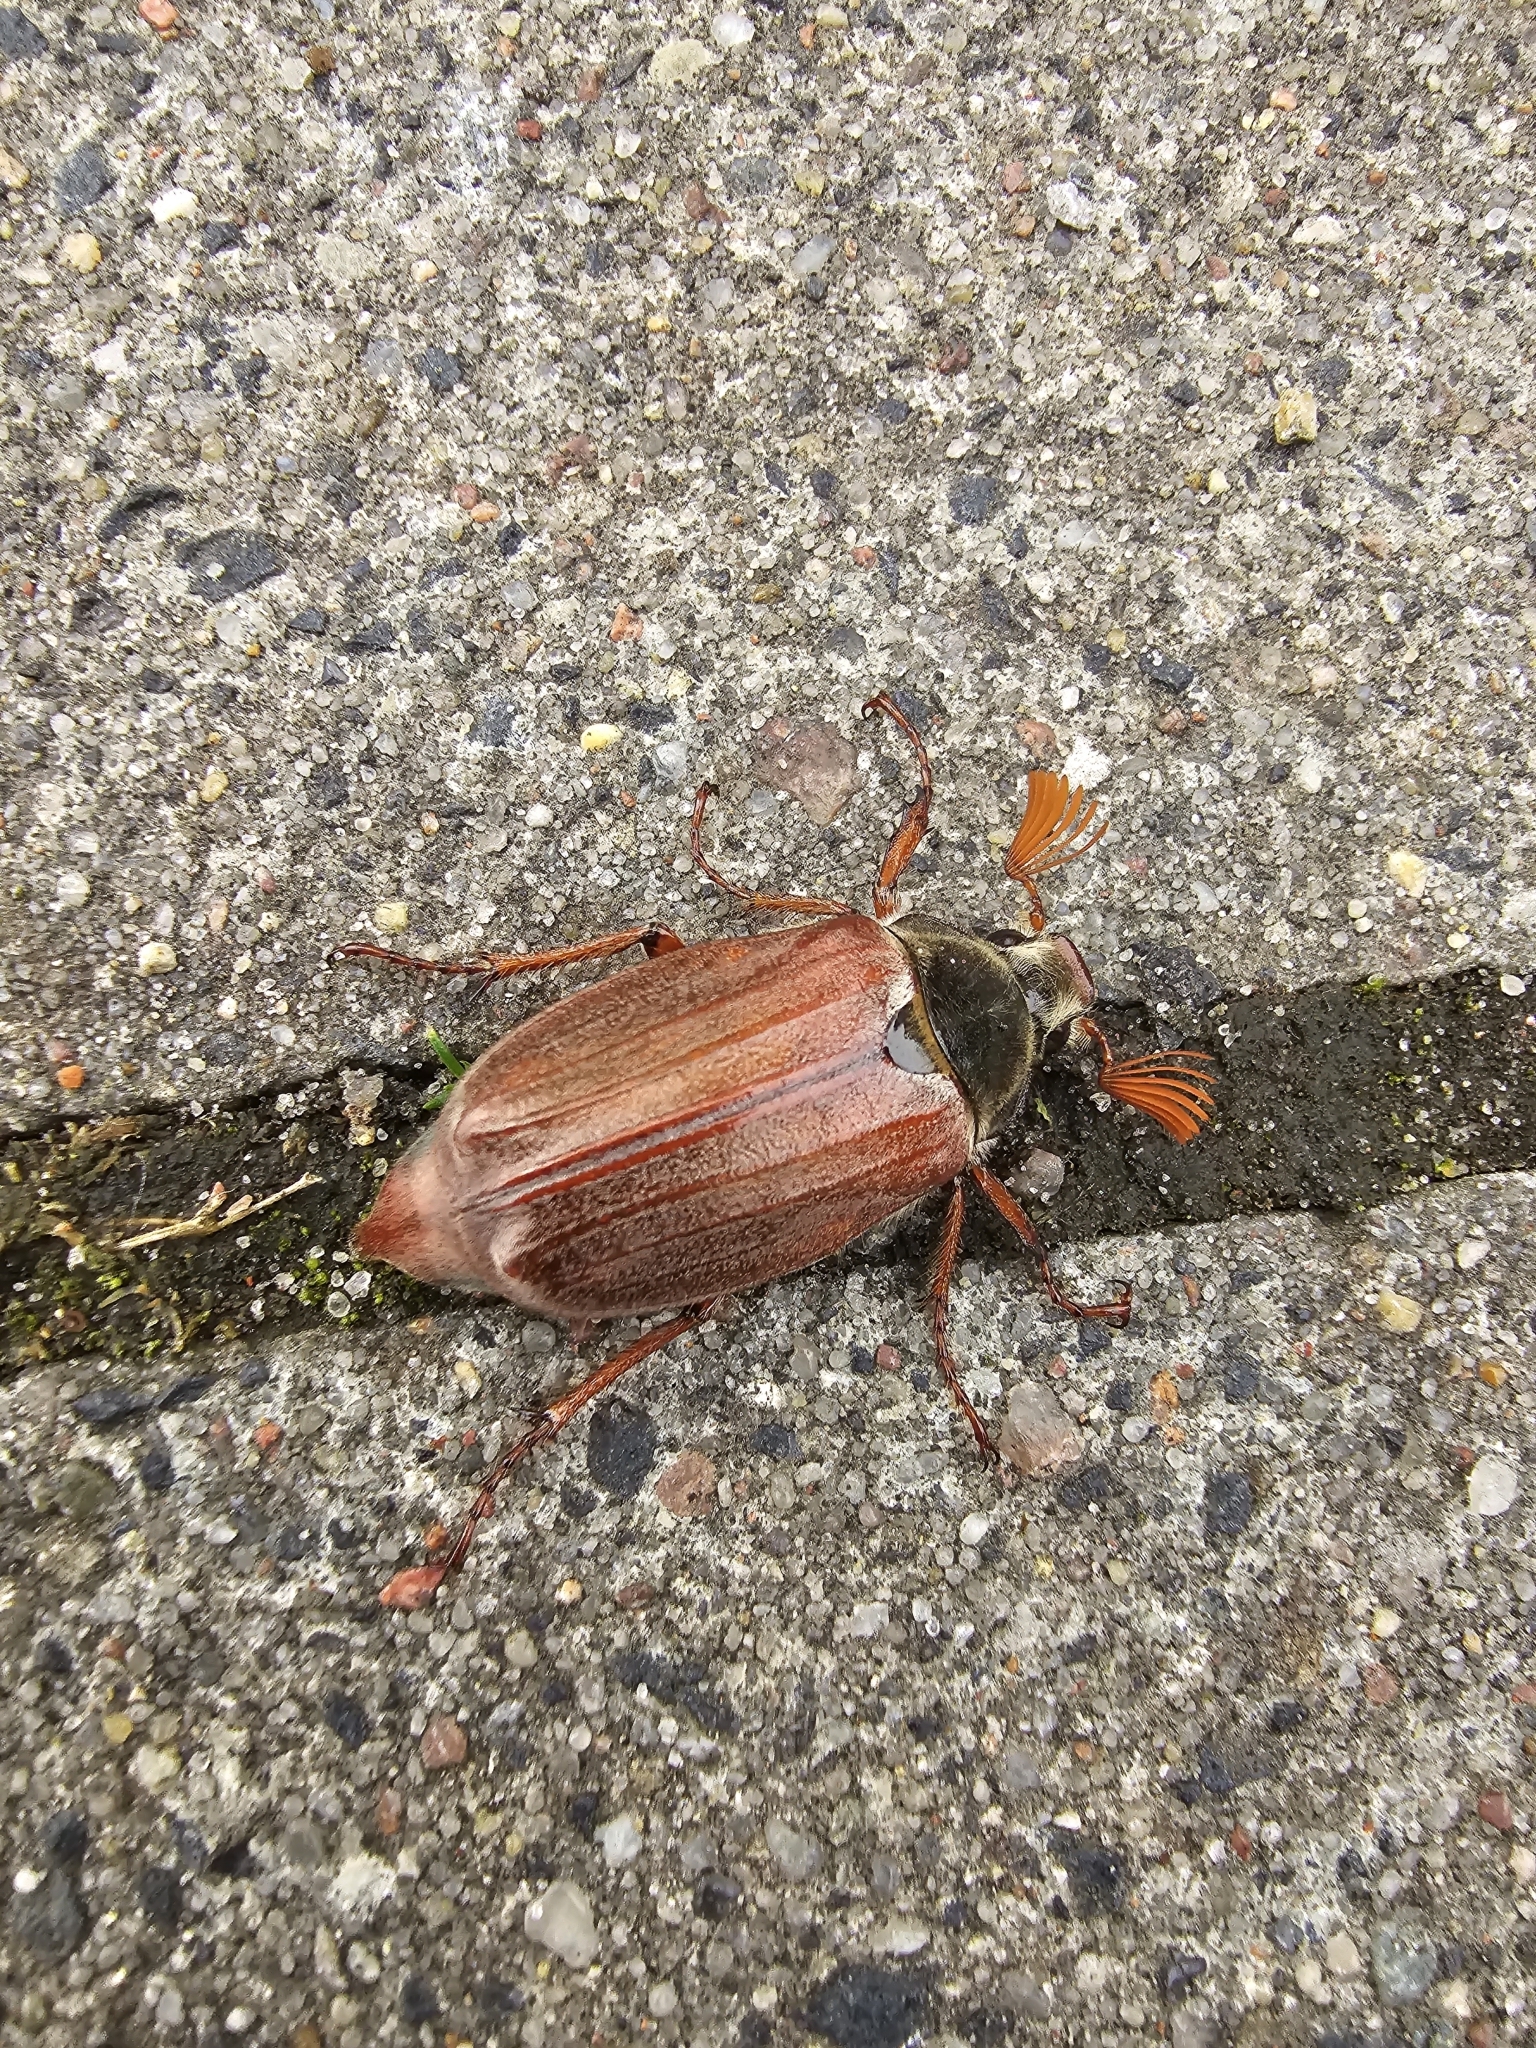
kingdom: Animalia
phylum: Arthropoda
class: Insecta
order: Coleoptera
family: Scarabaeidae
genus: Melolontha
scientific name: Melolontha melolontha
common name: Cockchafer maybeetle
